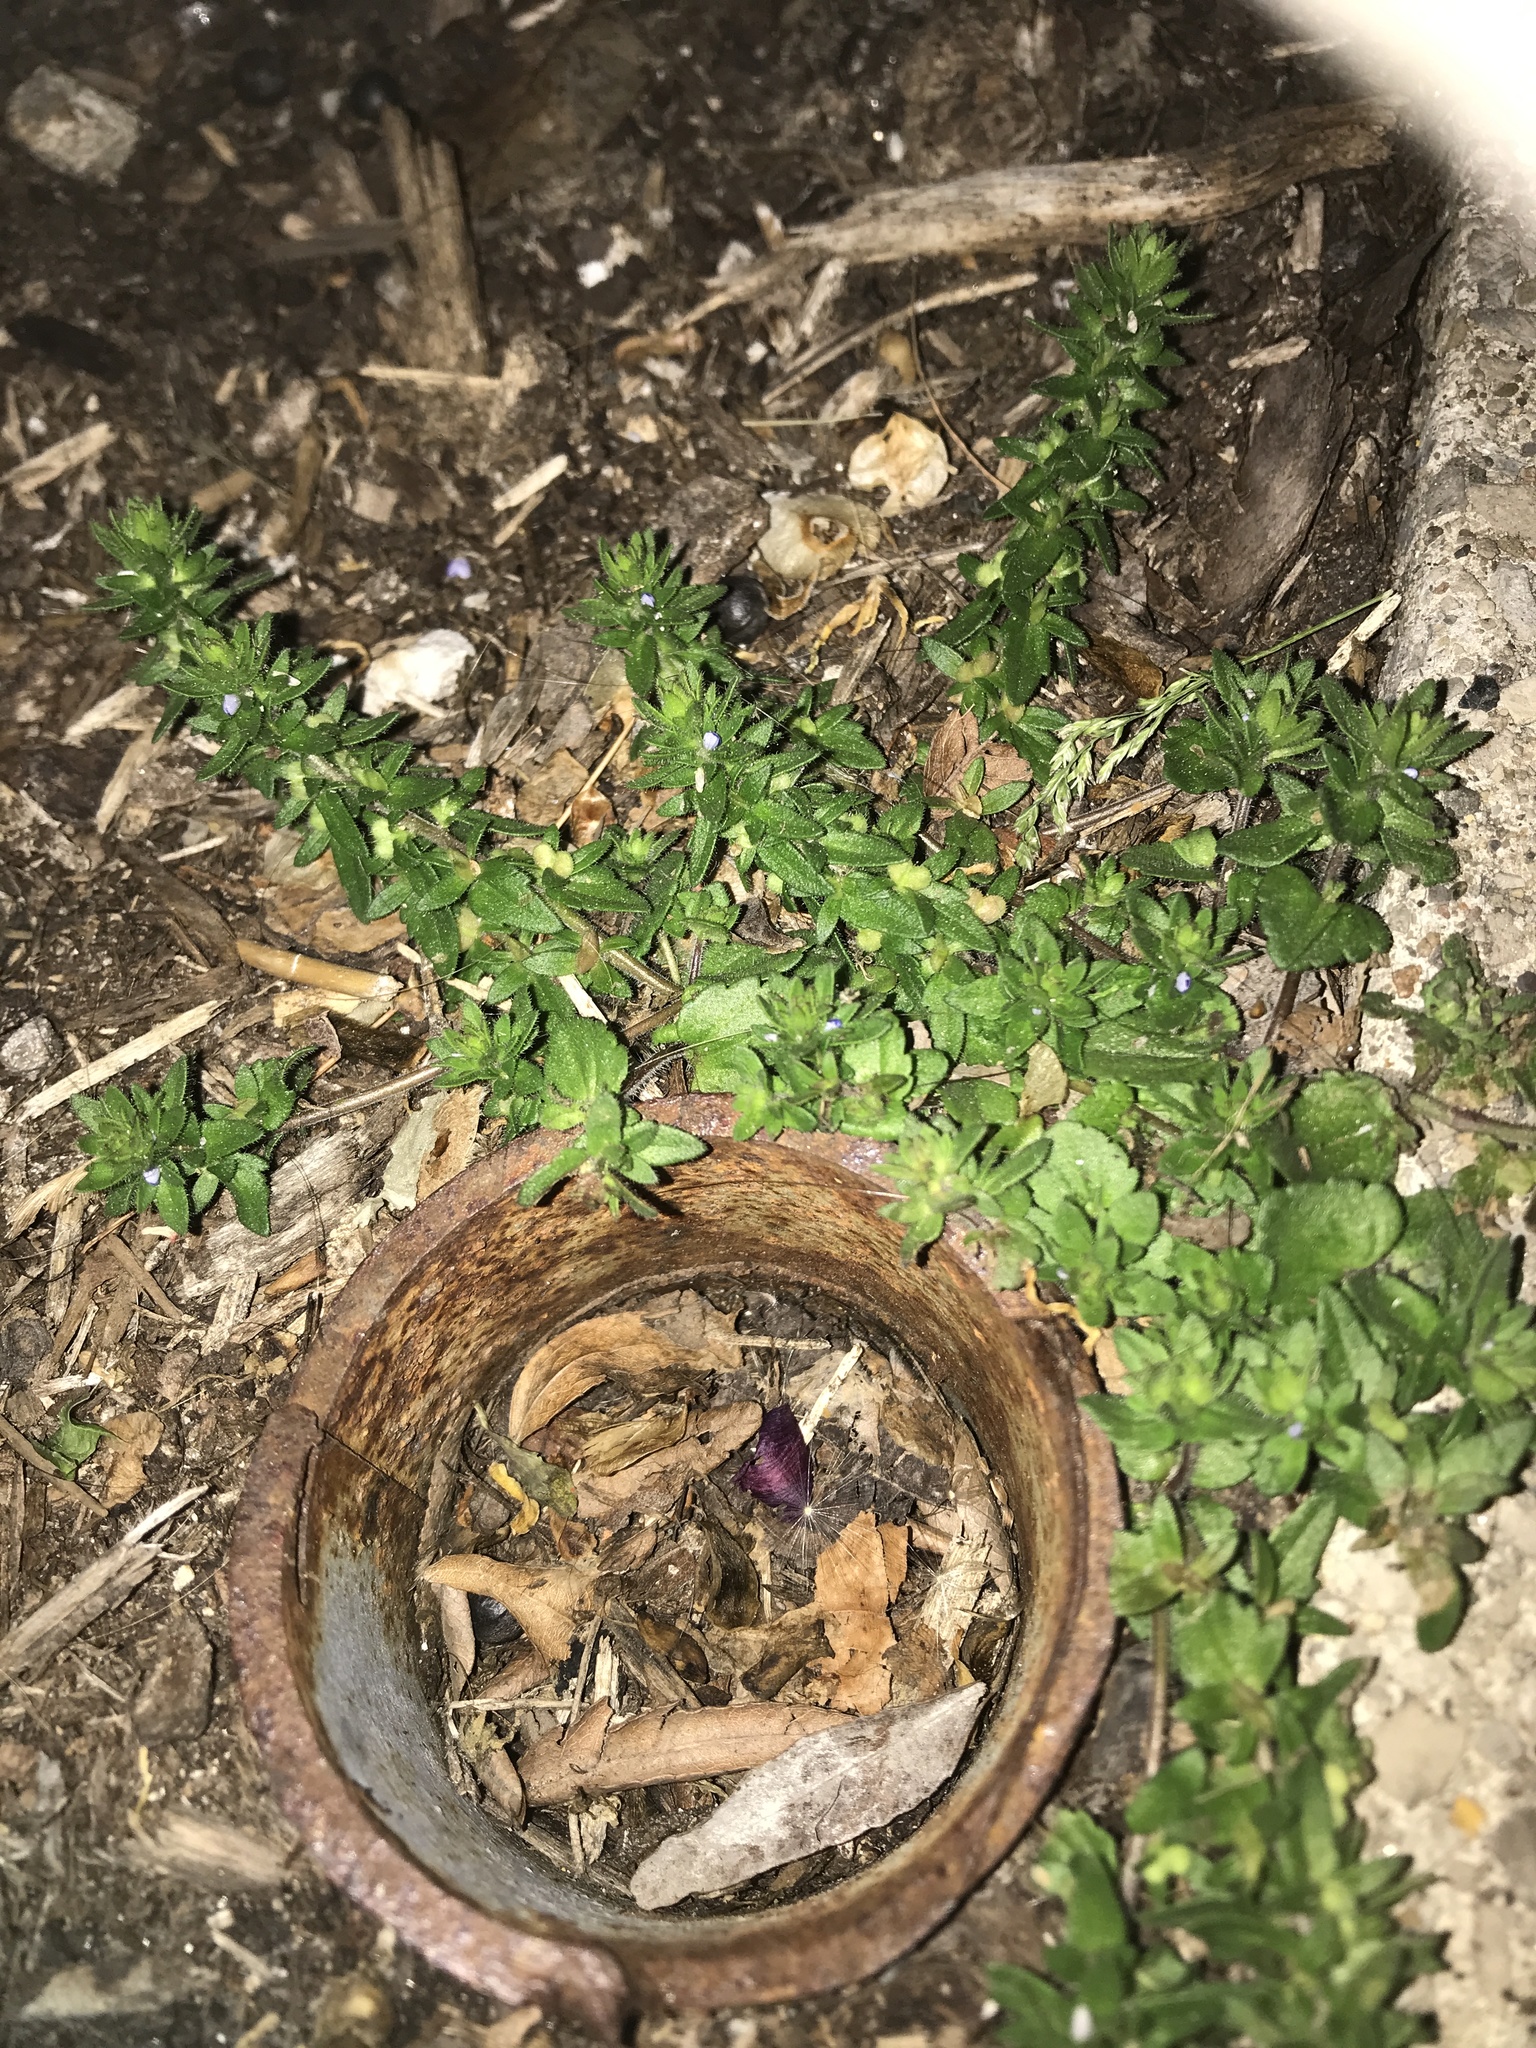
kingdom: Plantae
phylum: Tracheophyta
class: Magnoliopsida
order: Lamiales
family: Plantaginaceae
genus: Veronica
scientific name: Veronica arvensis
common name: Corn speedwell
